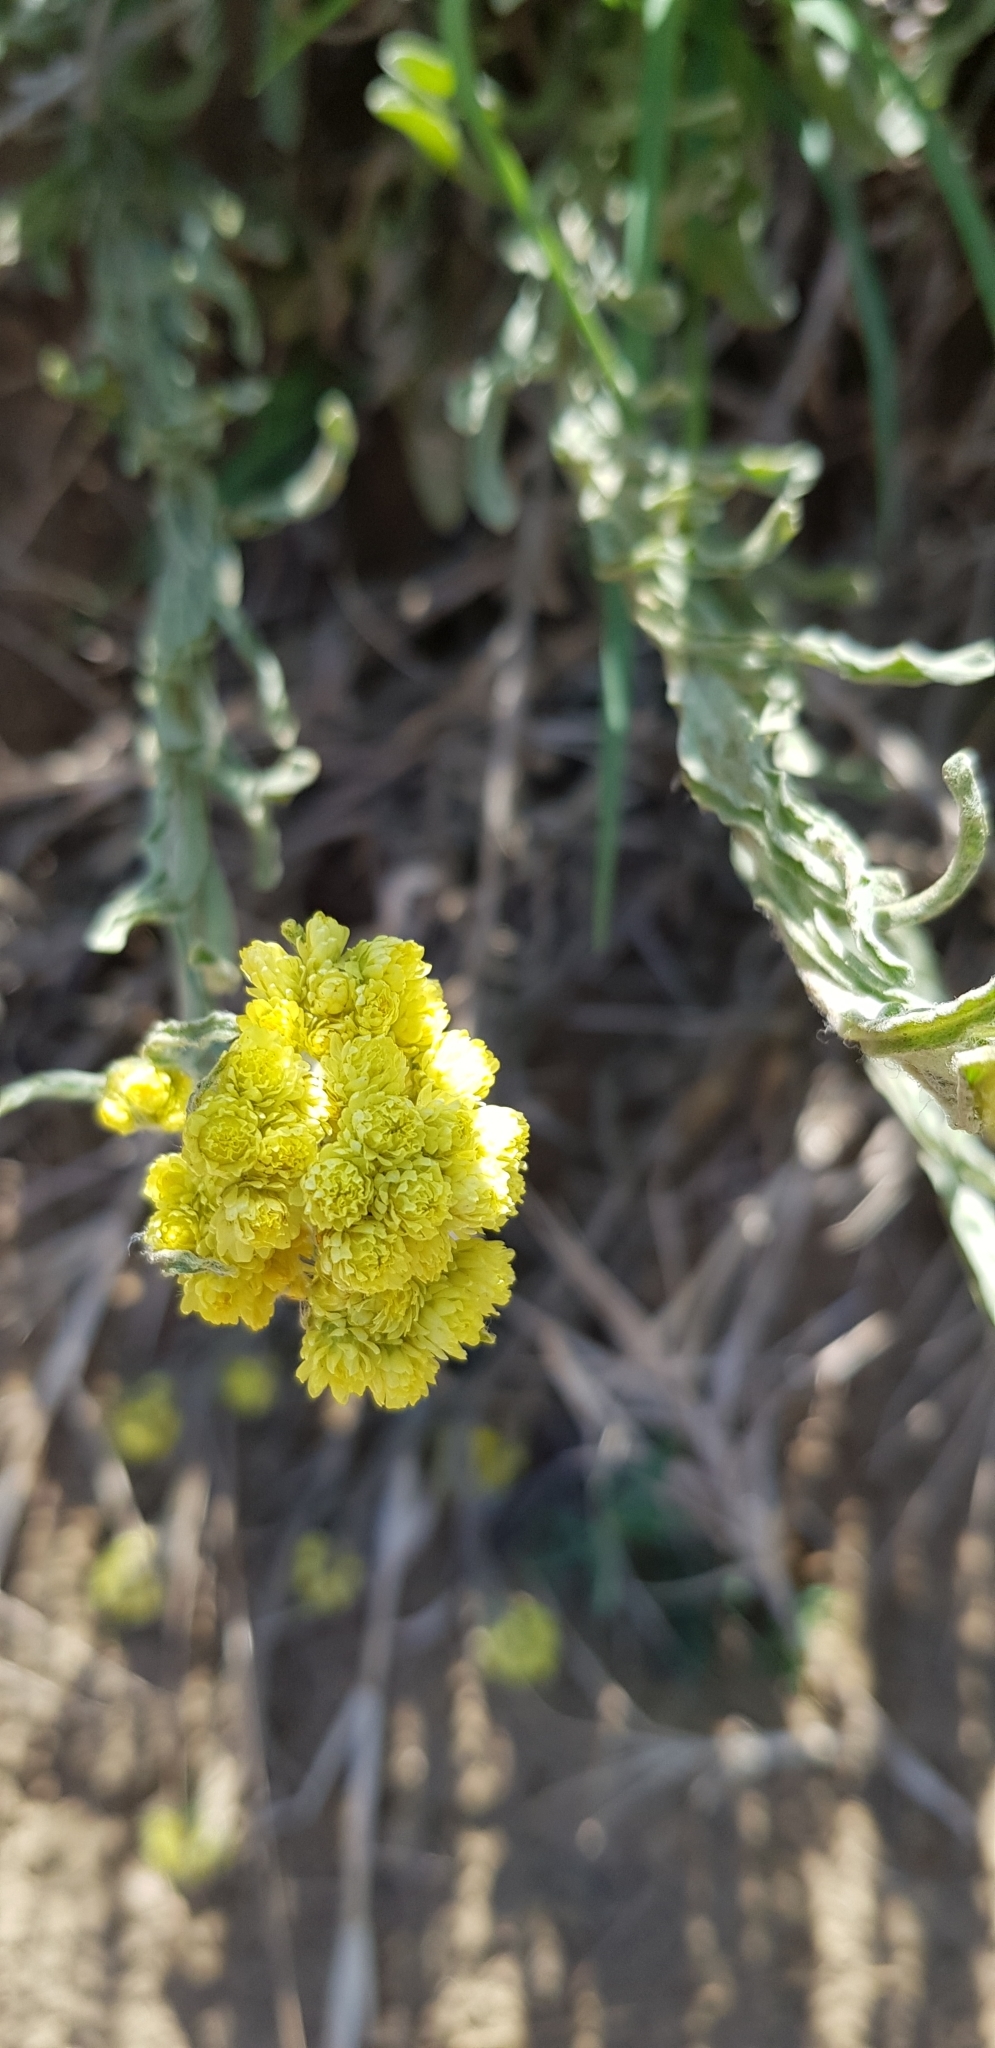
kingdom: Plantae
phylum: Tracheophyta
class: Magnoliopsida
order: Asterales
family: Asteraceae
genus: Helichrysum
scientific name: Helichrysum arenarium
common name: Strawflower
